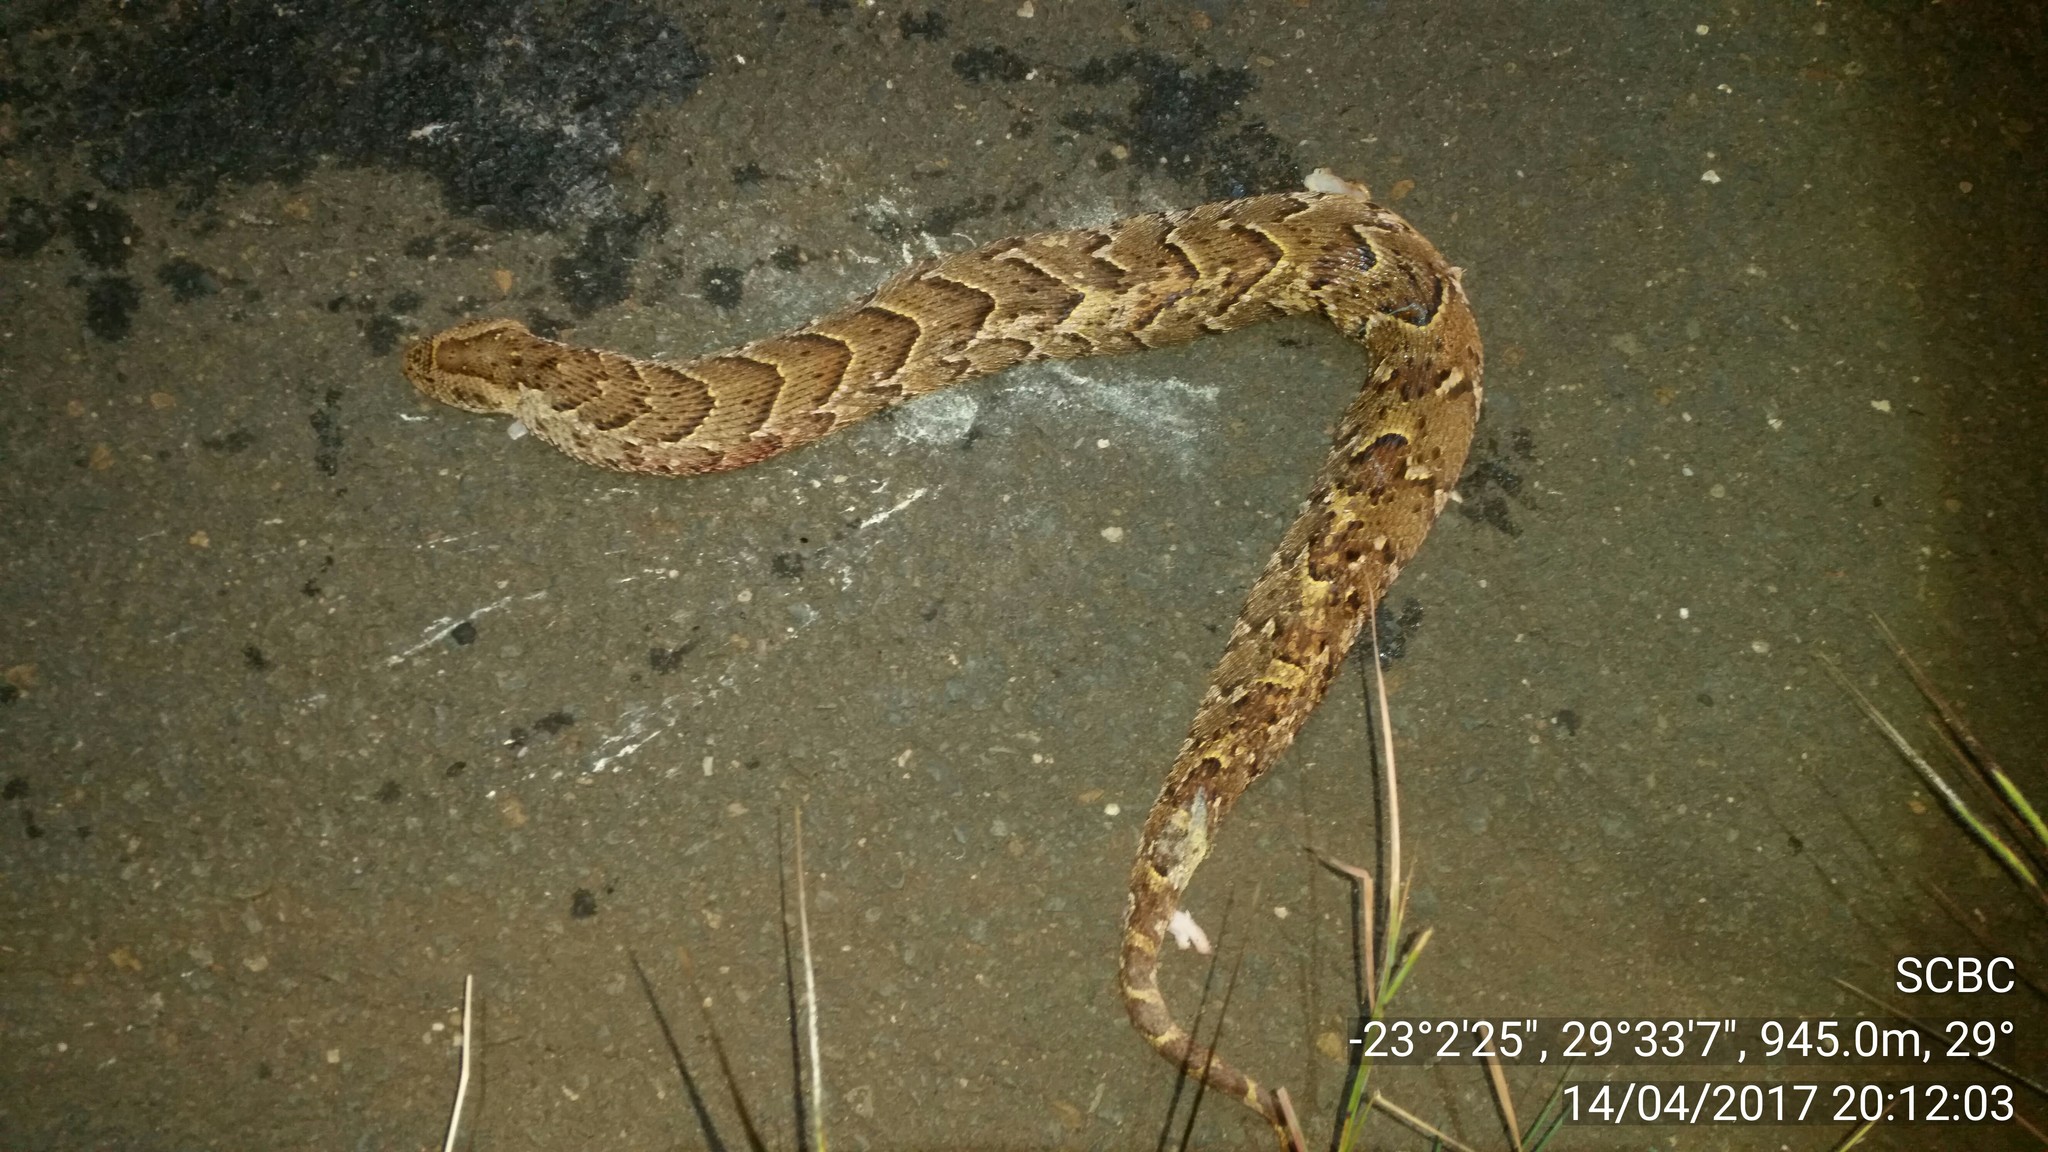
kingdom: Animalia
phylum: Chordata
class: Squamata
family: Viperidae
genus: Bitis
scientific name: Bitis arietans
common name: Puff adder
